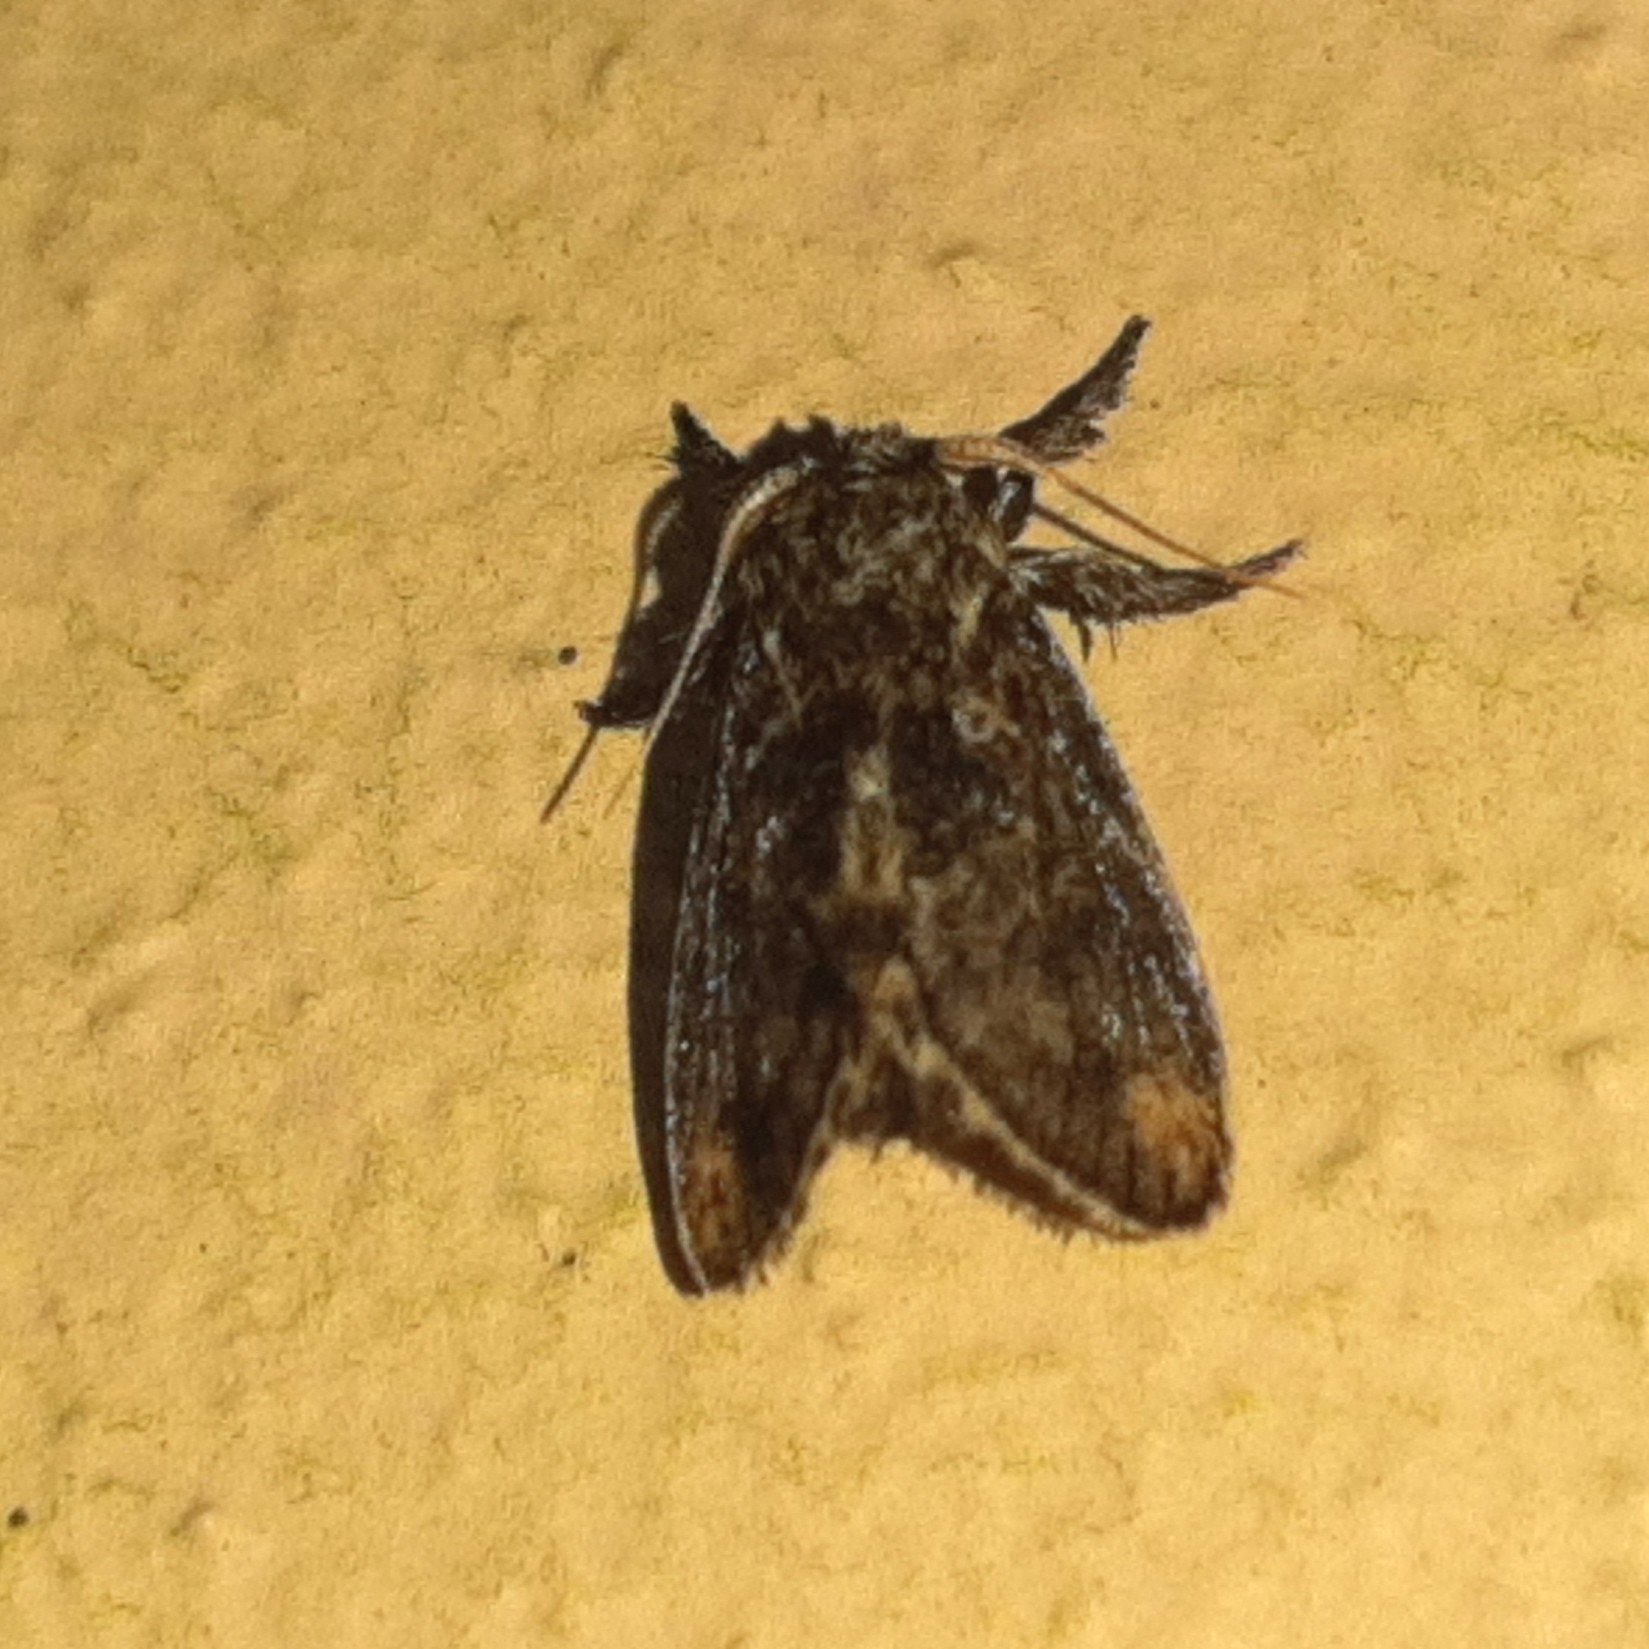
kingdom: Animalia
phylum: Arthropoda
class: Insecta
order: Lepidoptera
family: Limacodidae
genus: Euclea
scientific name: Euclea costaricana
